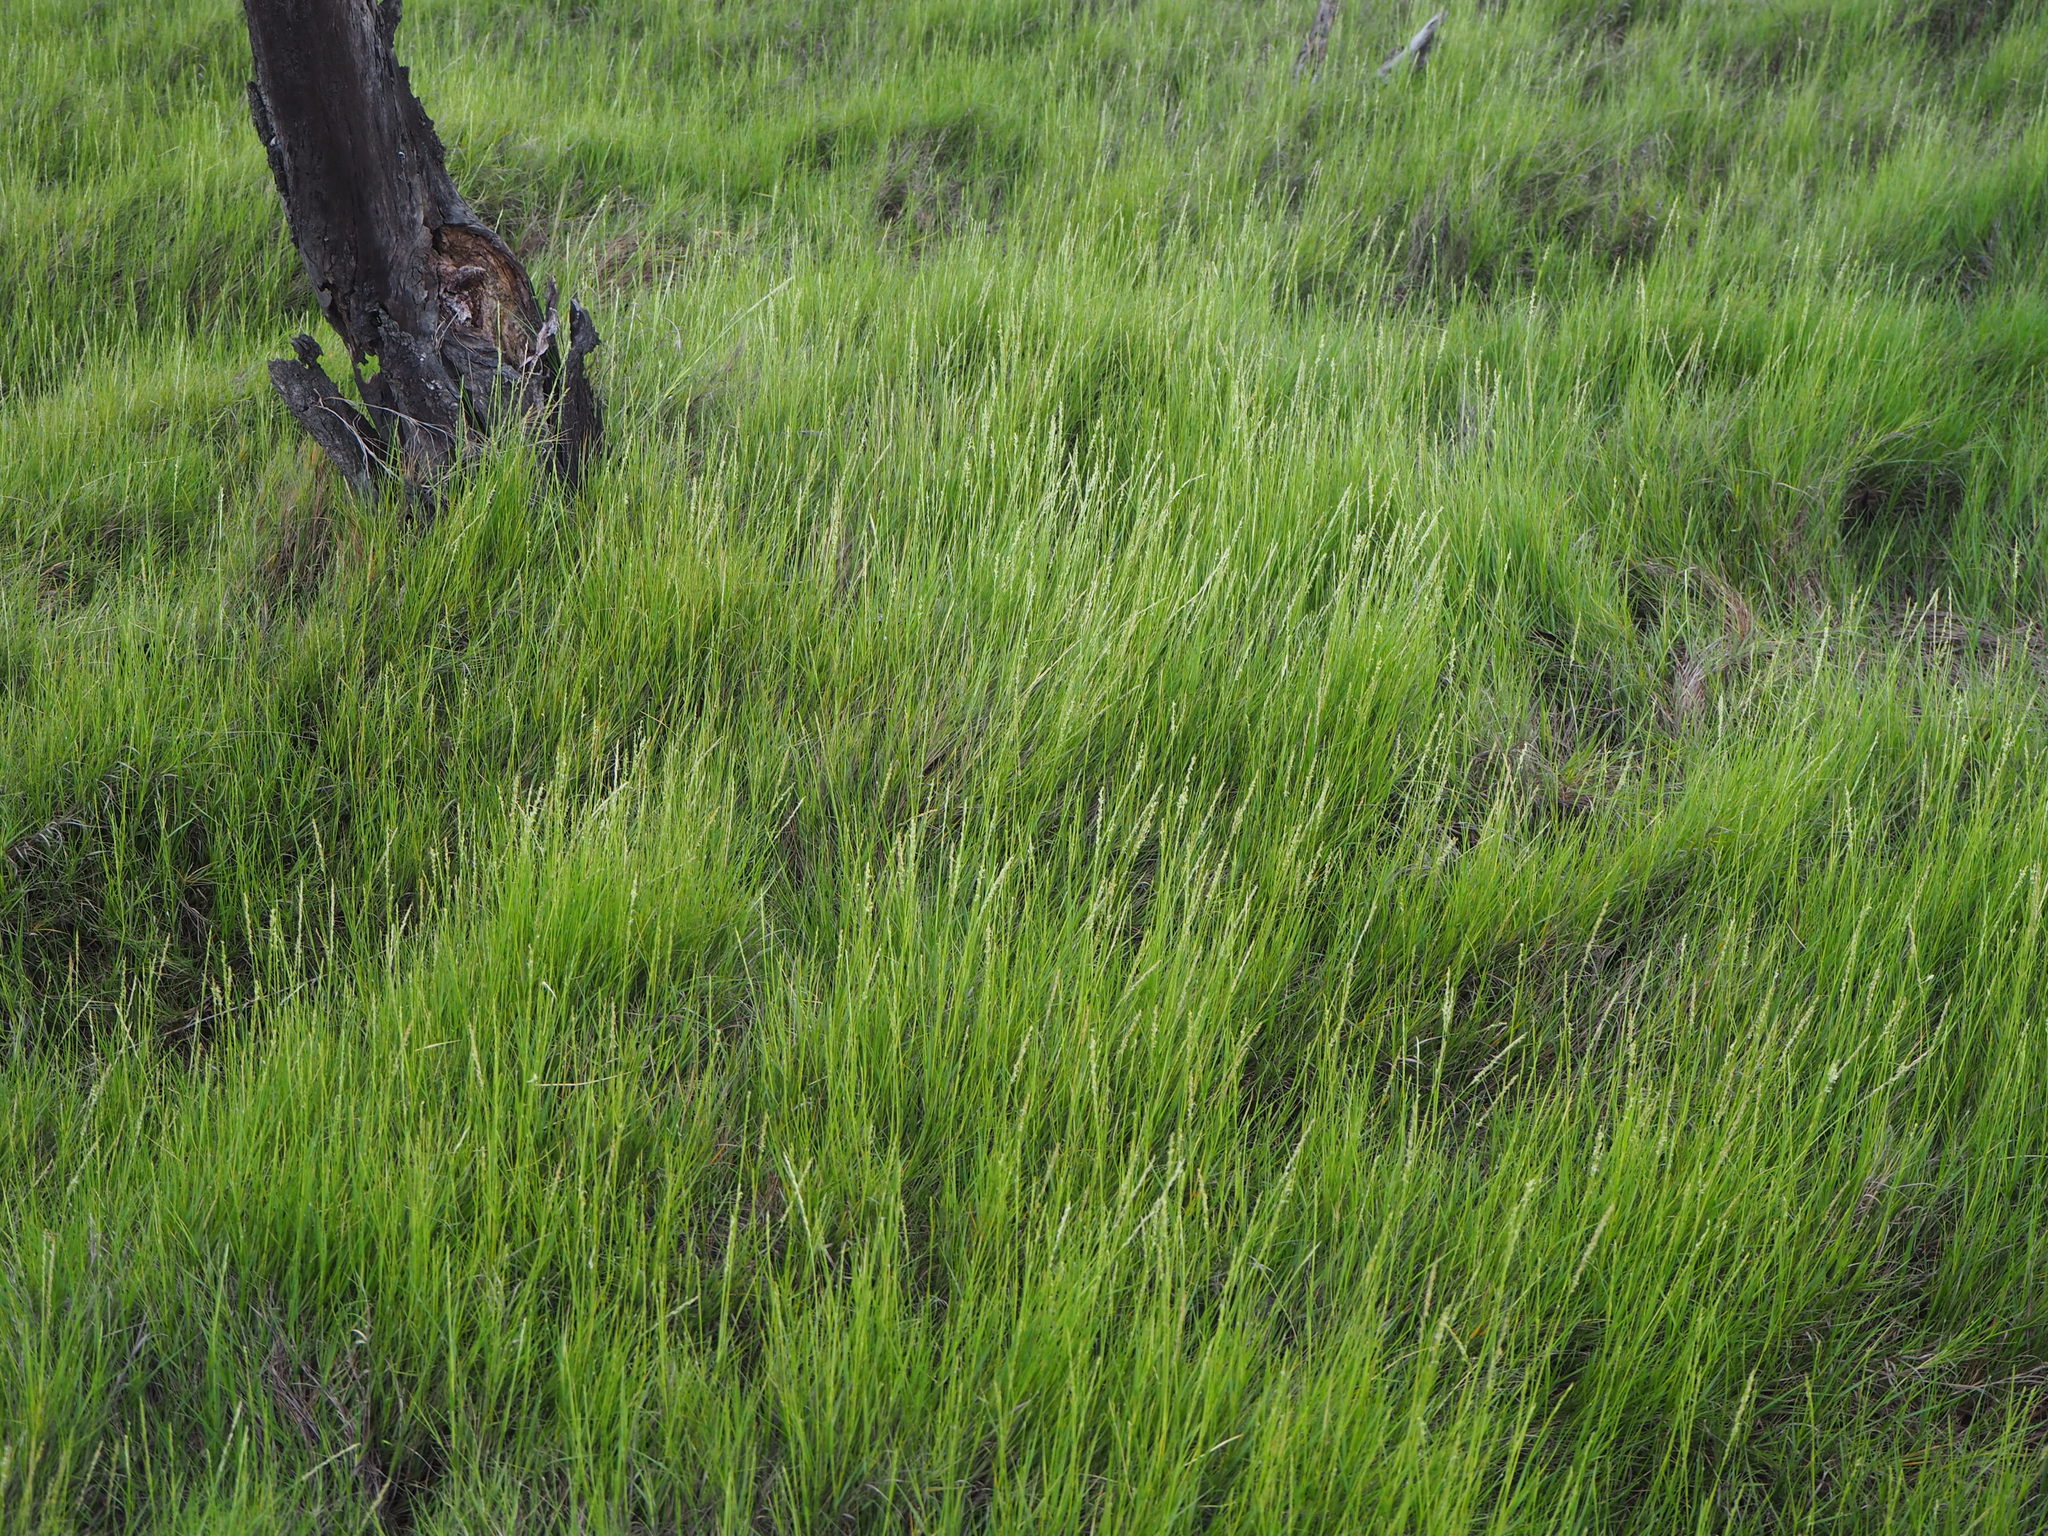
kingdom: Plantae
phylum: Tracheophyta
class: Liliopsida
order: Poales
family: Poaceae
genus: Sporobolus
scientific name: Sporobolus virginicus
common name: Beach dropseed
